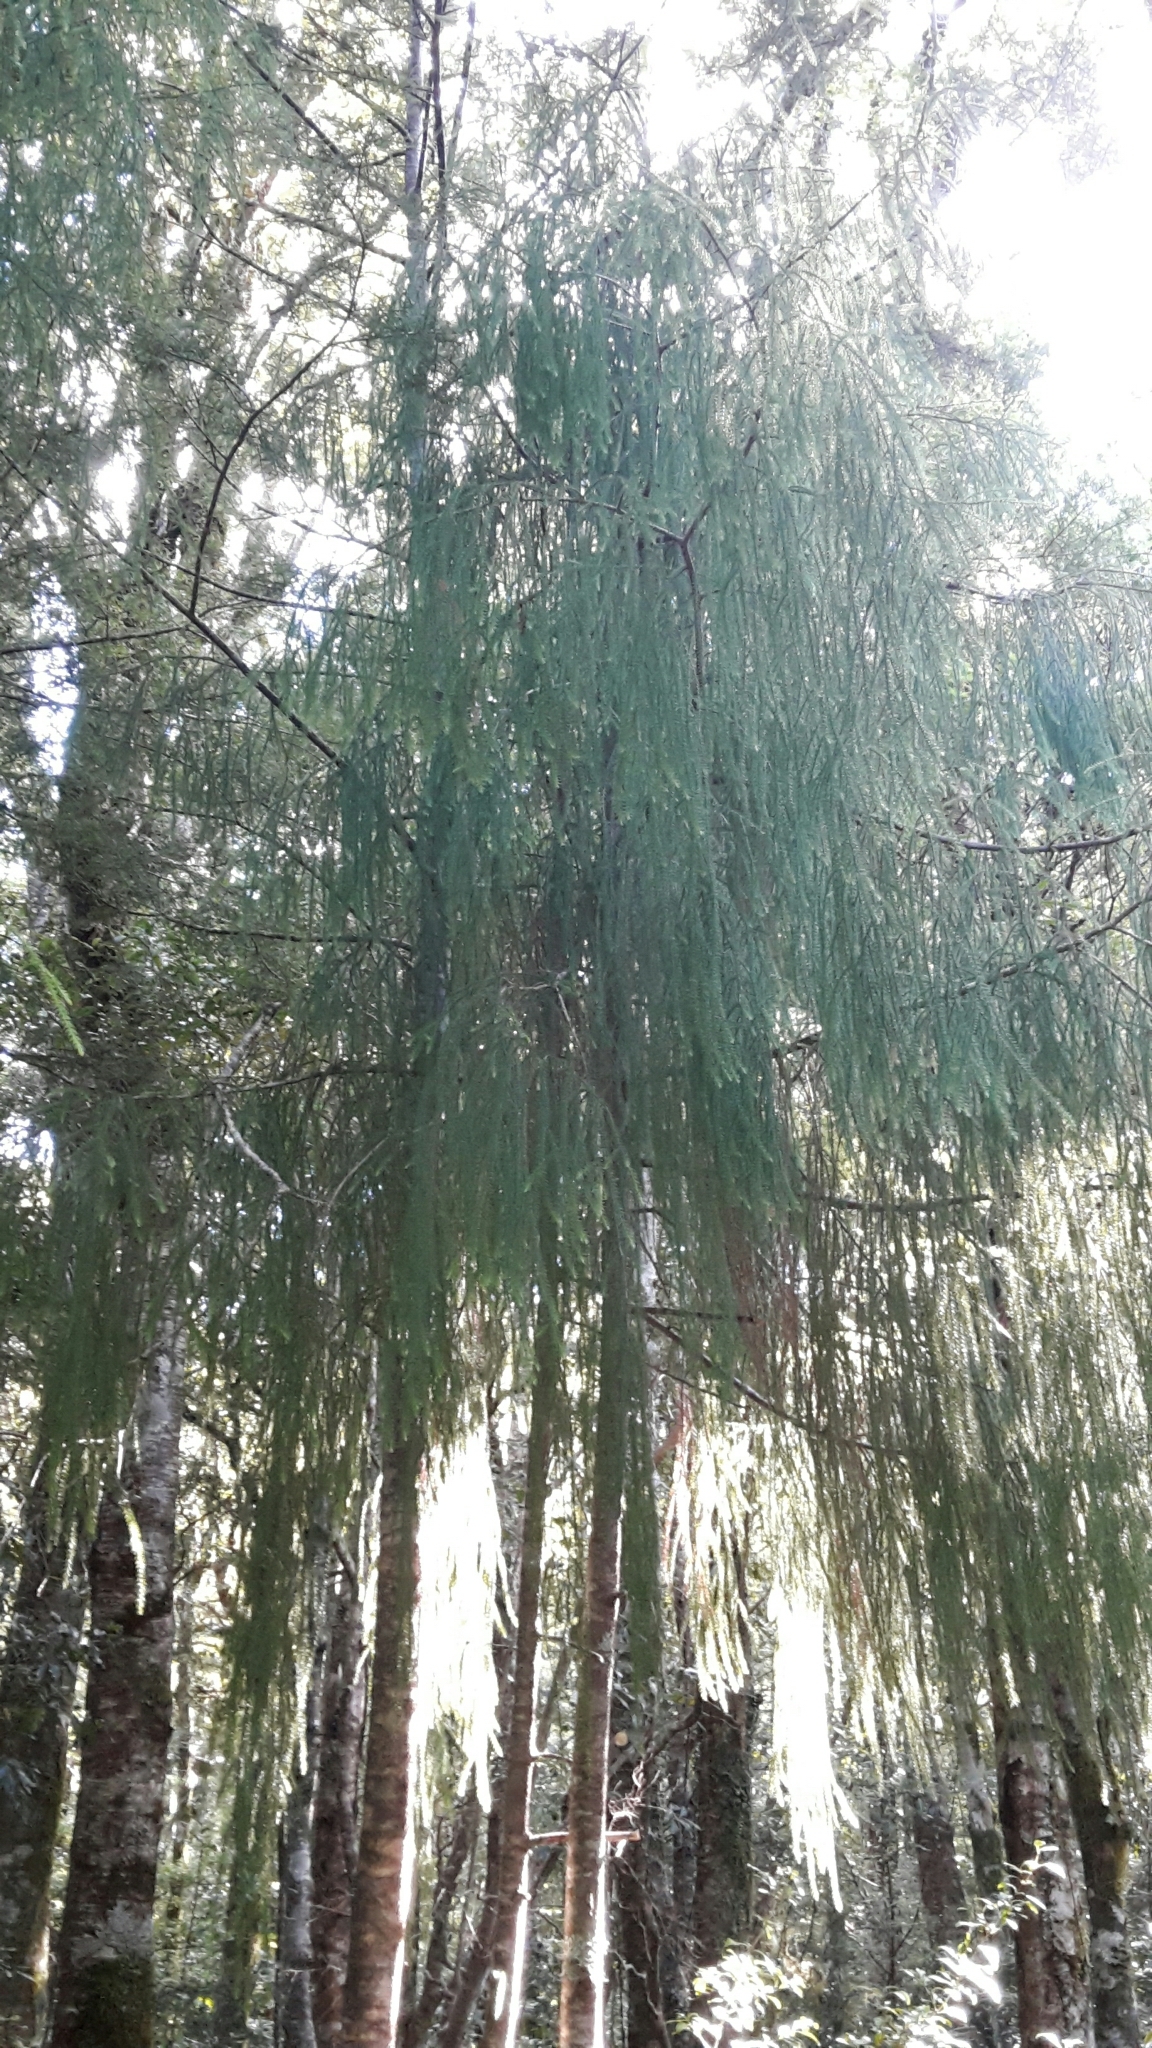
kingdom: Plantae
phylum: Tracheophyta
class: Pinopsida
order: Pinales
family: Podocarpaceae
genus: Dacrydium
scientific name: Dacrydium cupressinum
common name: Red pine
